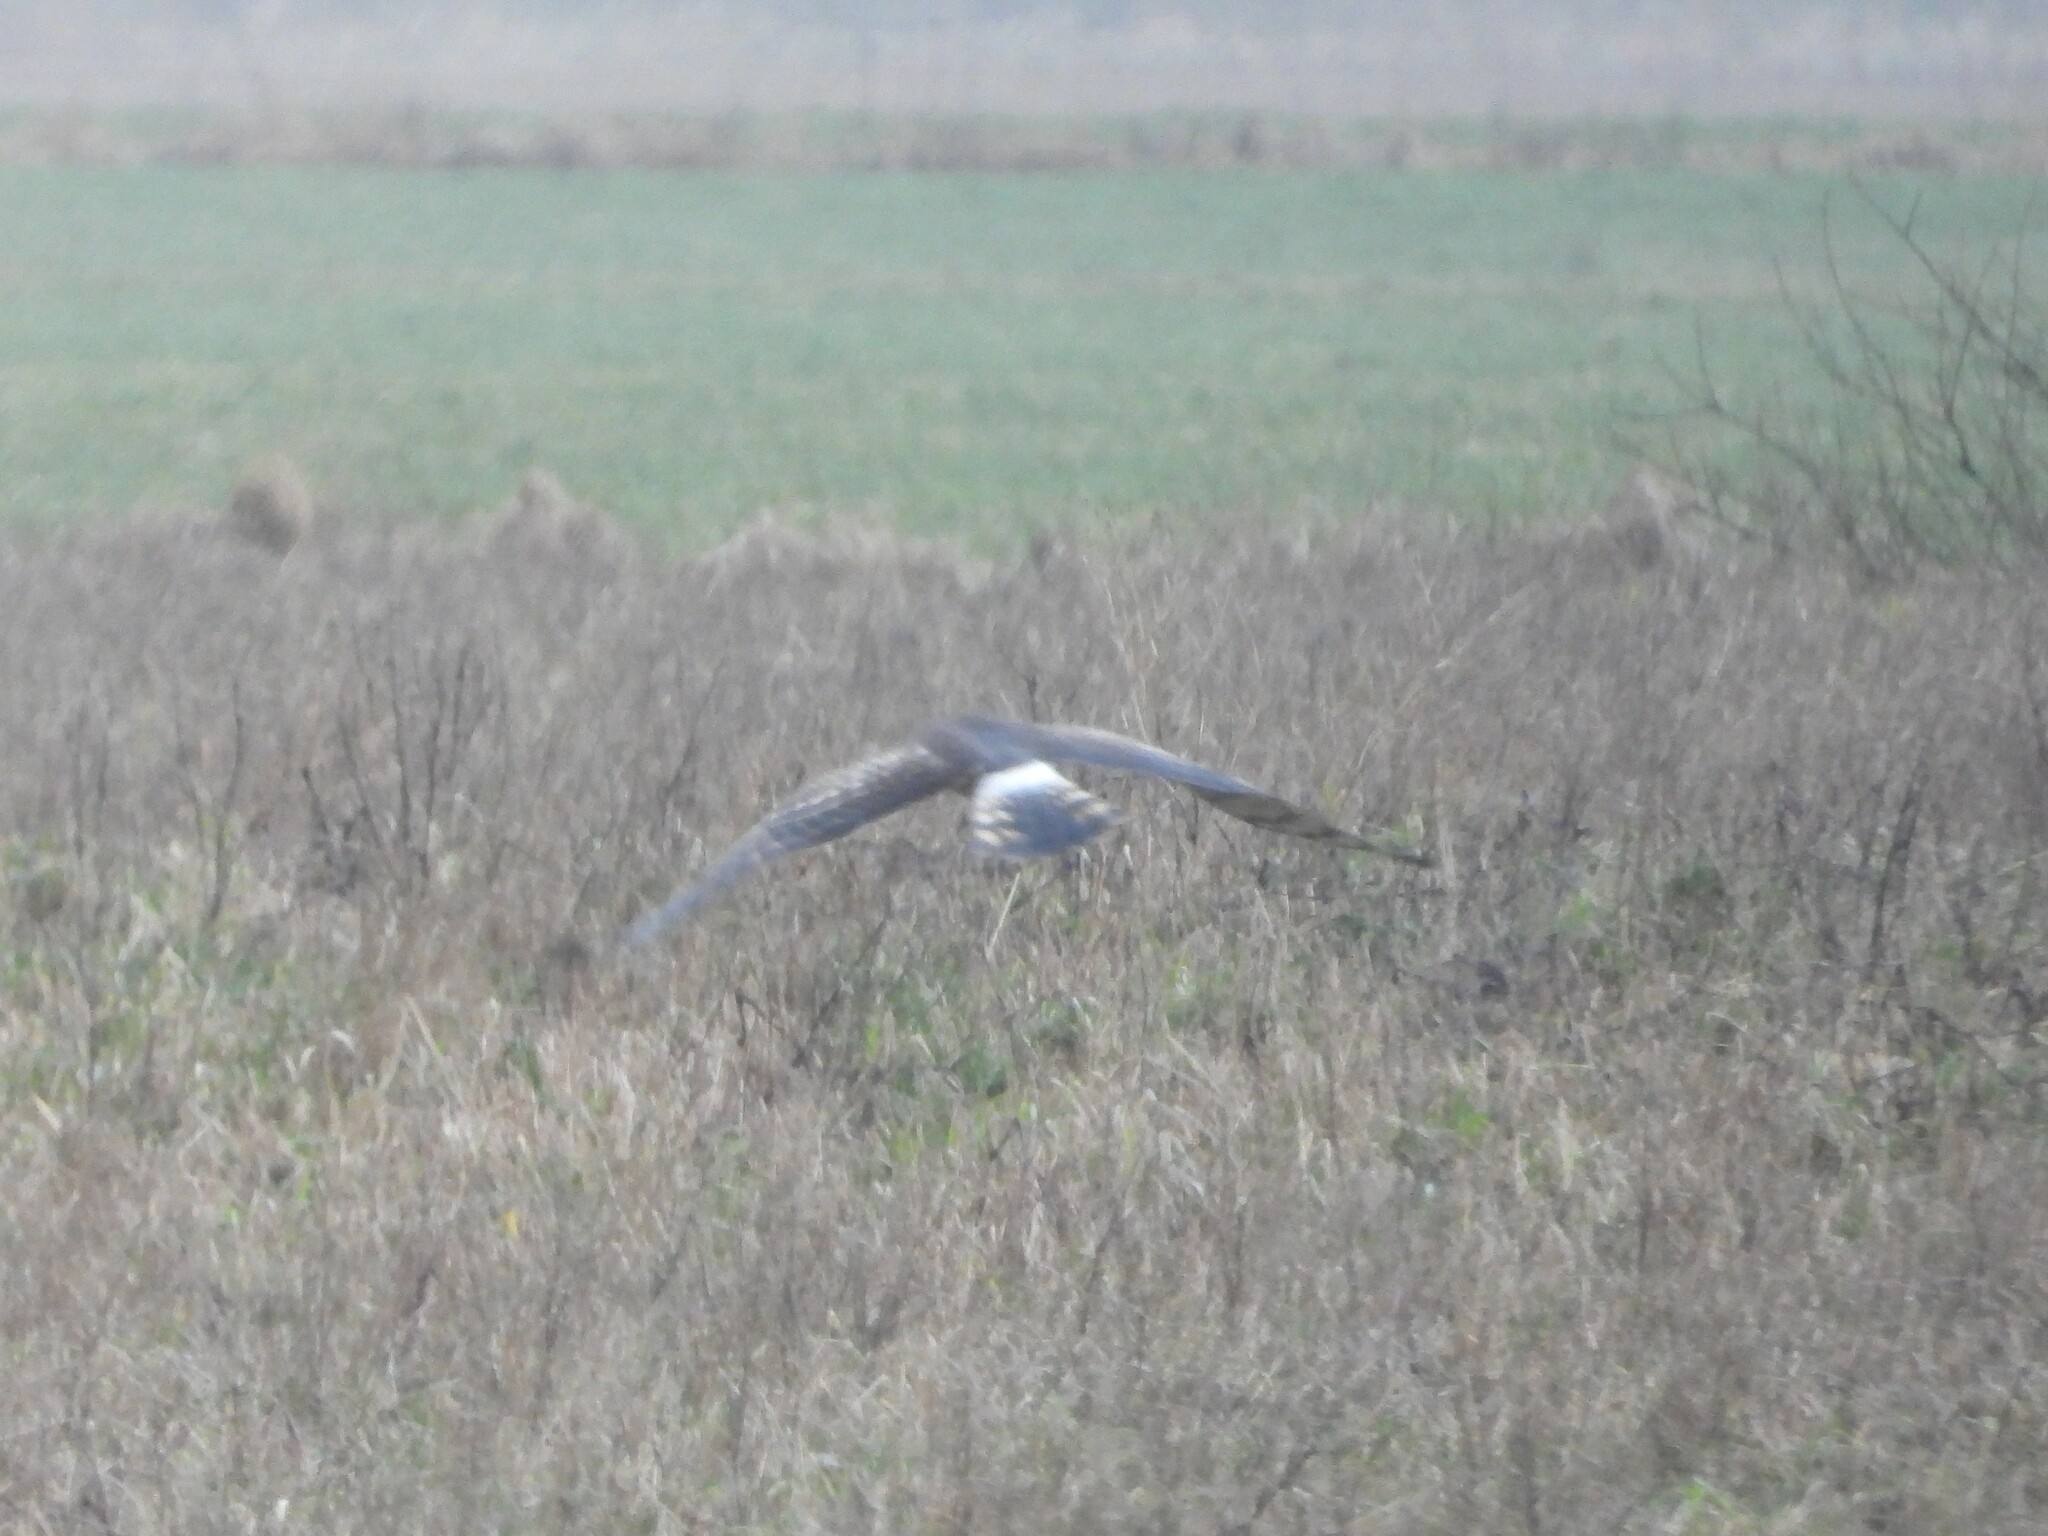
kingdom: Animalia
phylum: Chordata
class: Aves
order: Accipitriformes
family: Accipitridae
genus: Circus
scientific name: Circus cyaneus
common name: Hen harrier
